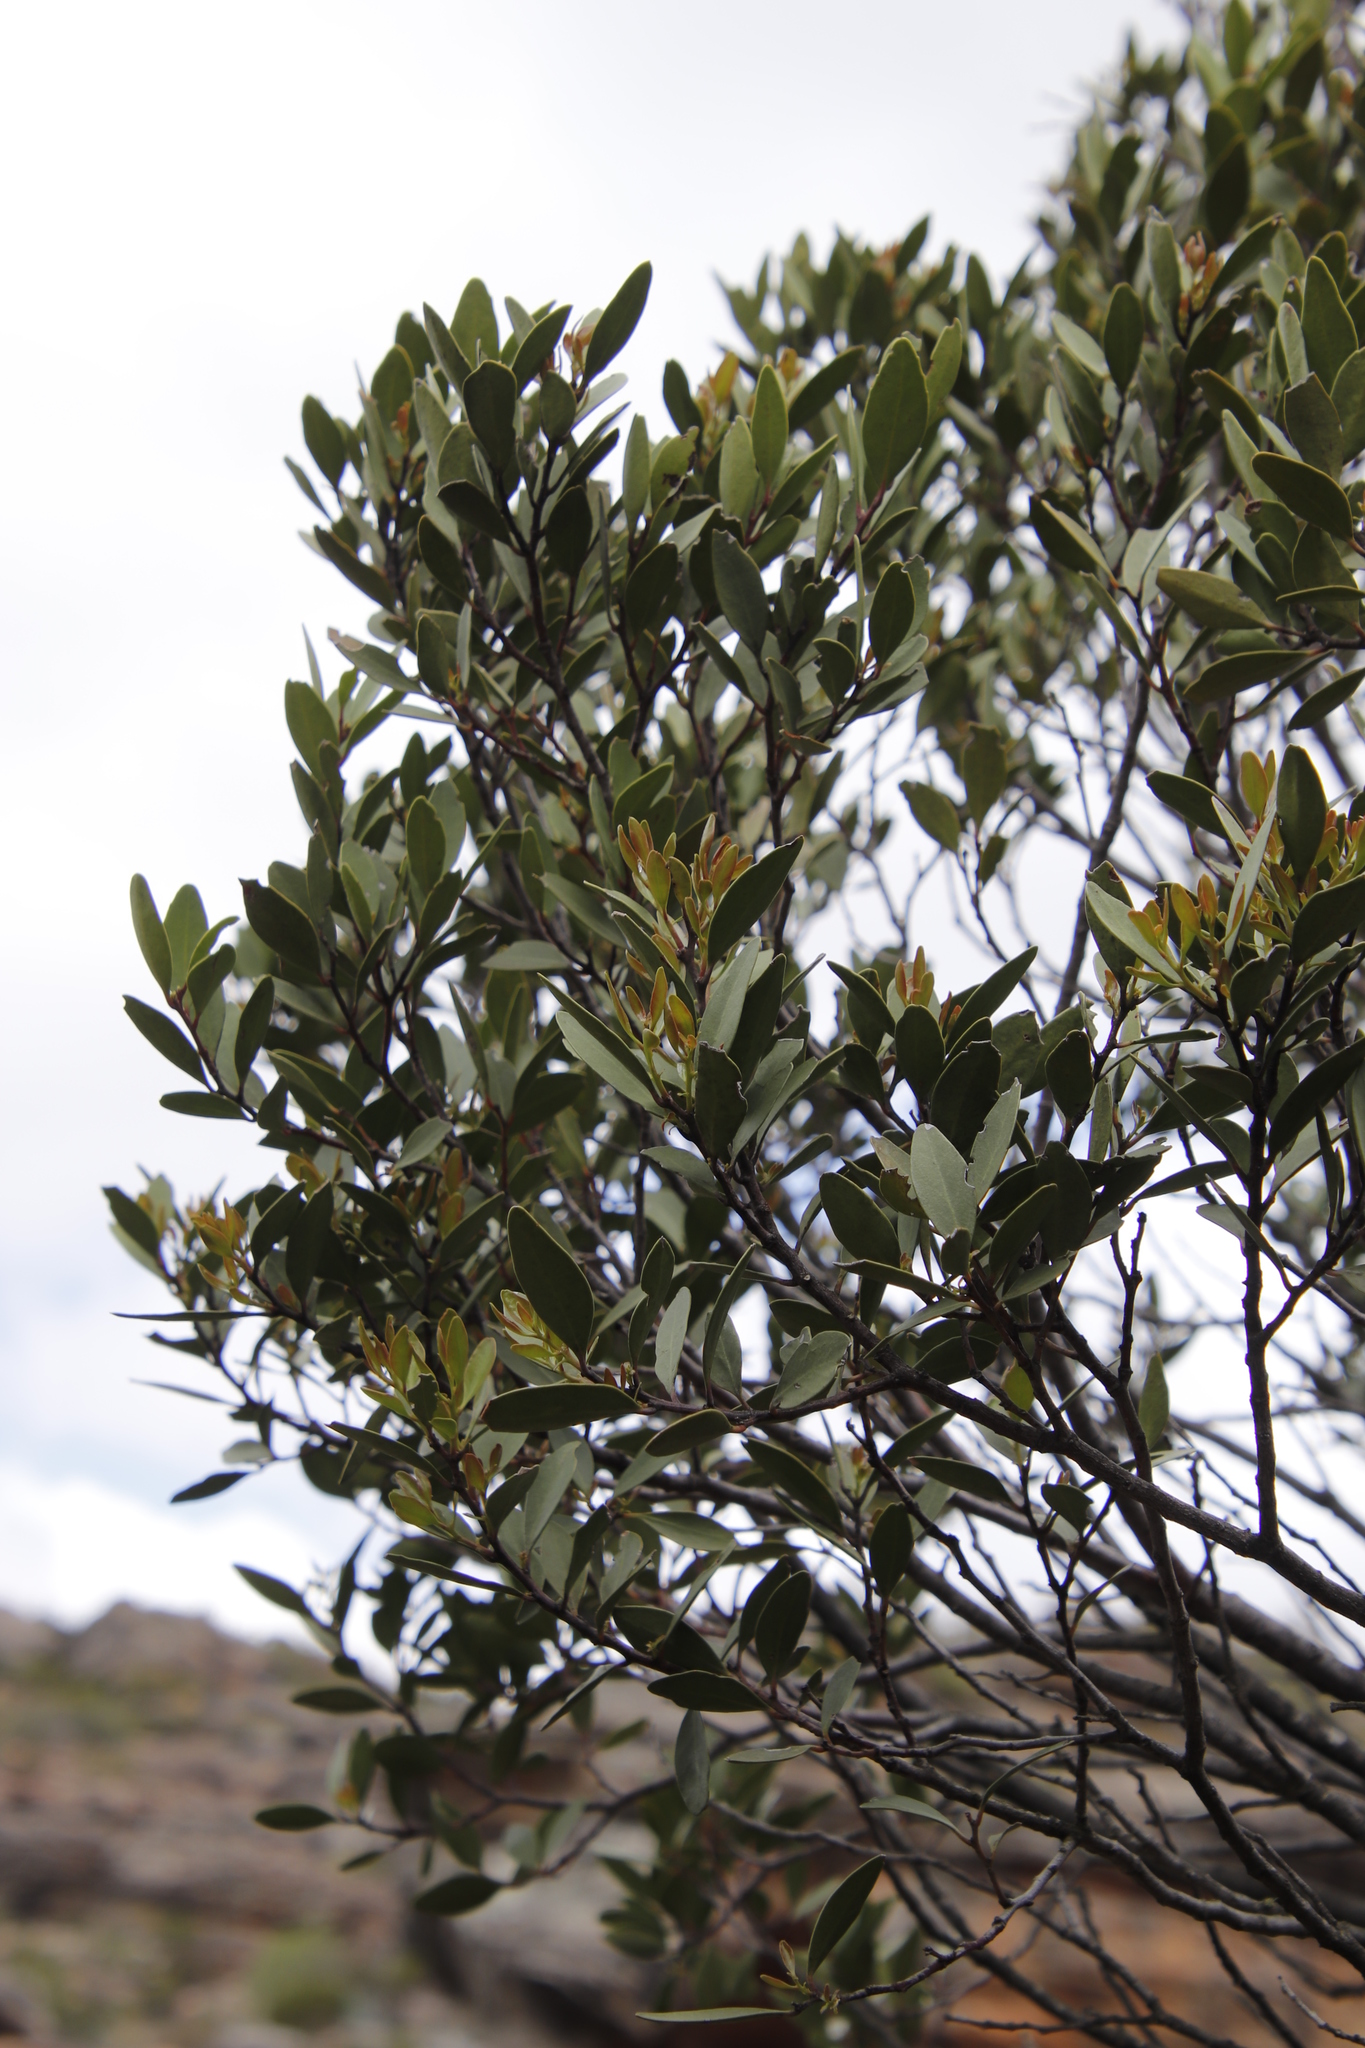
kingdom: Plantae
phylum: Tracheophyta
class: Magnoliopsida
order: Celastrales
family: Celastraceae
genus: Gymnosporia
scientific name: Gymnosporia laurina
